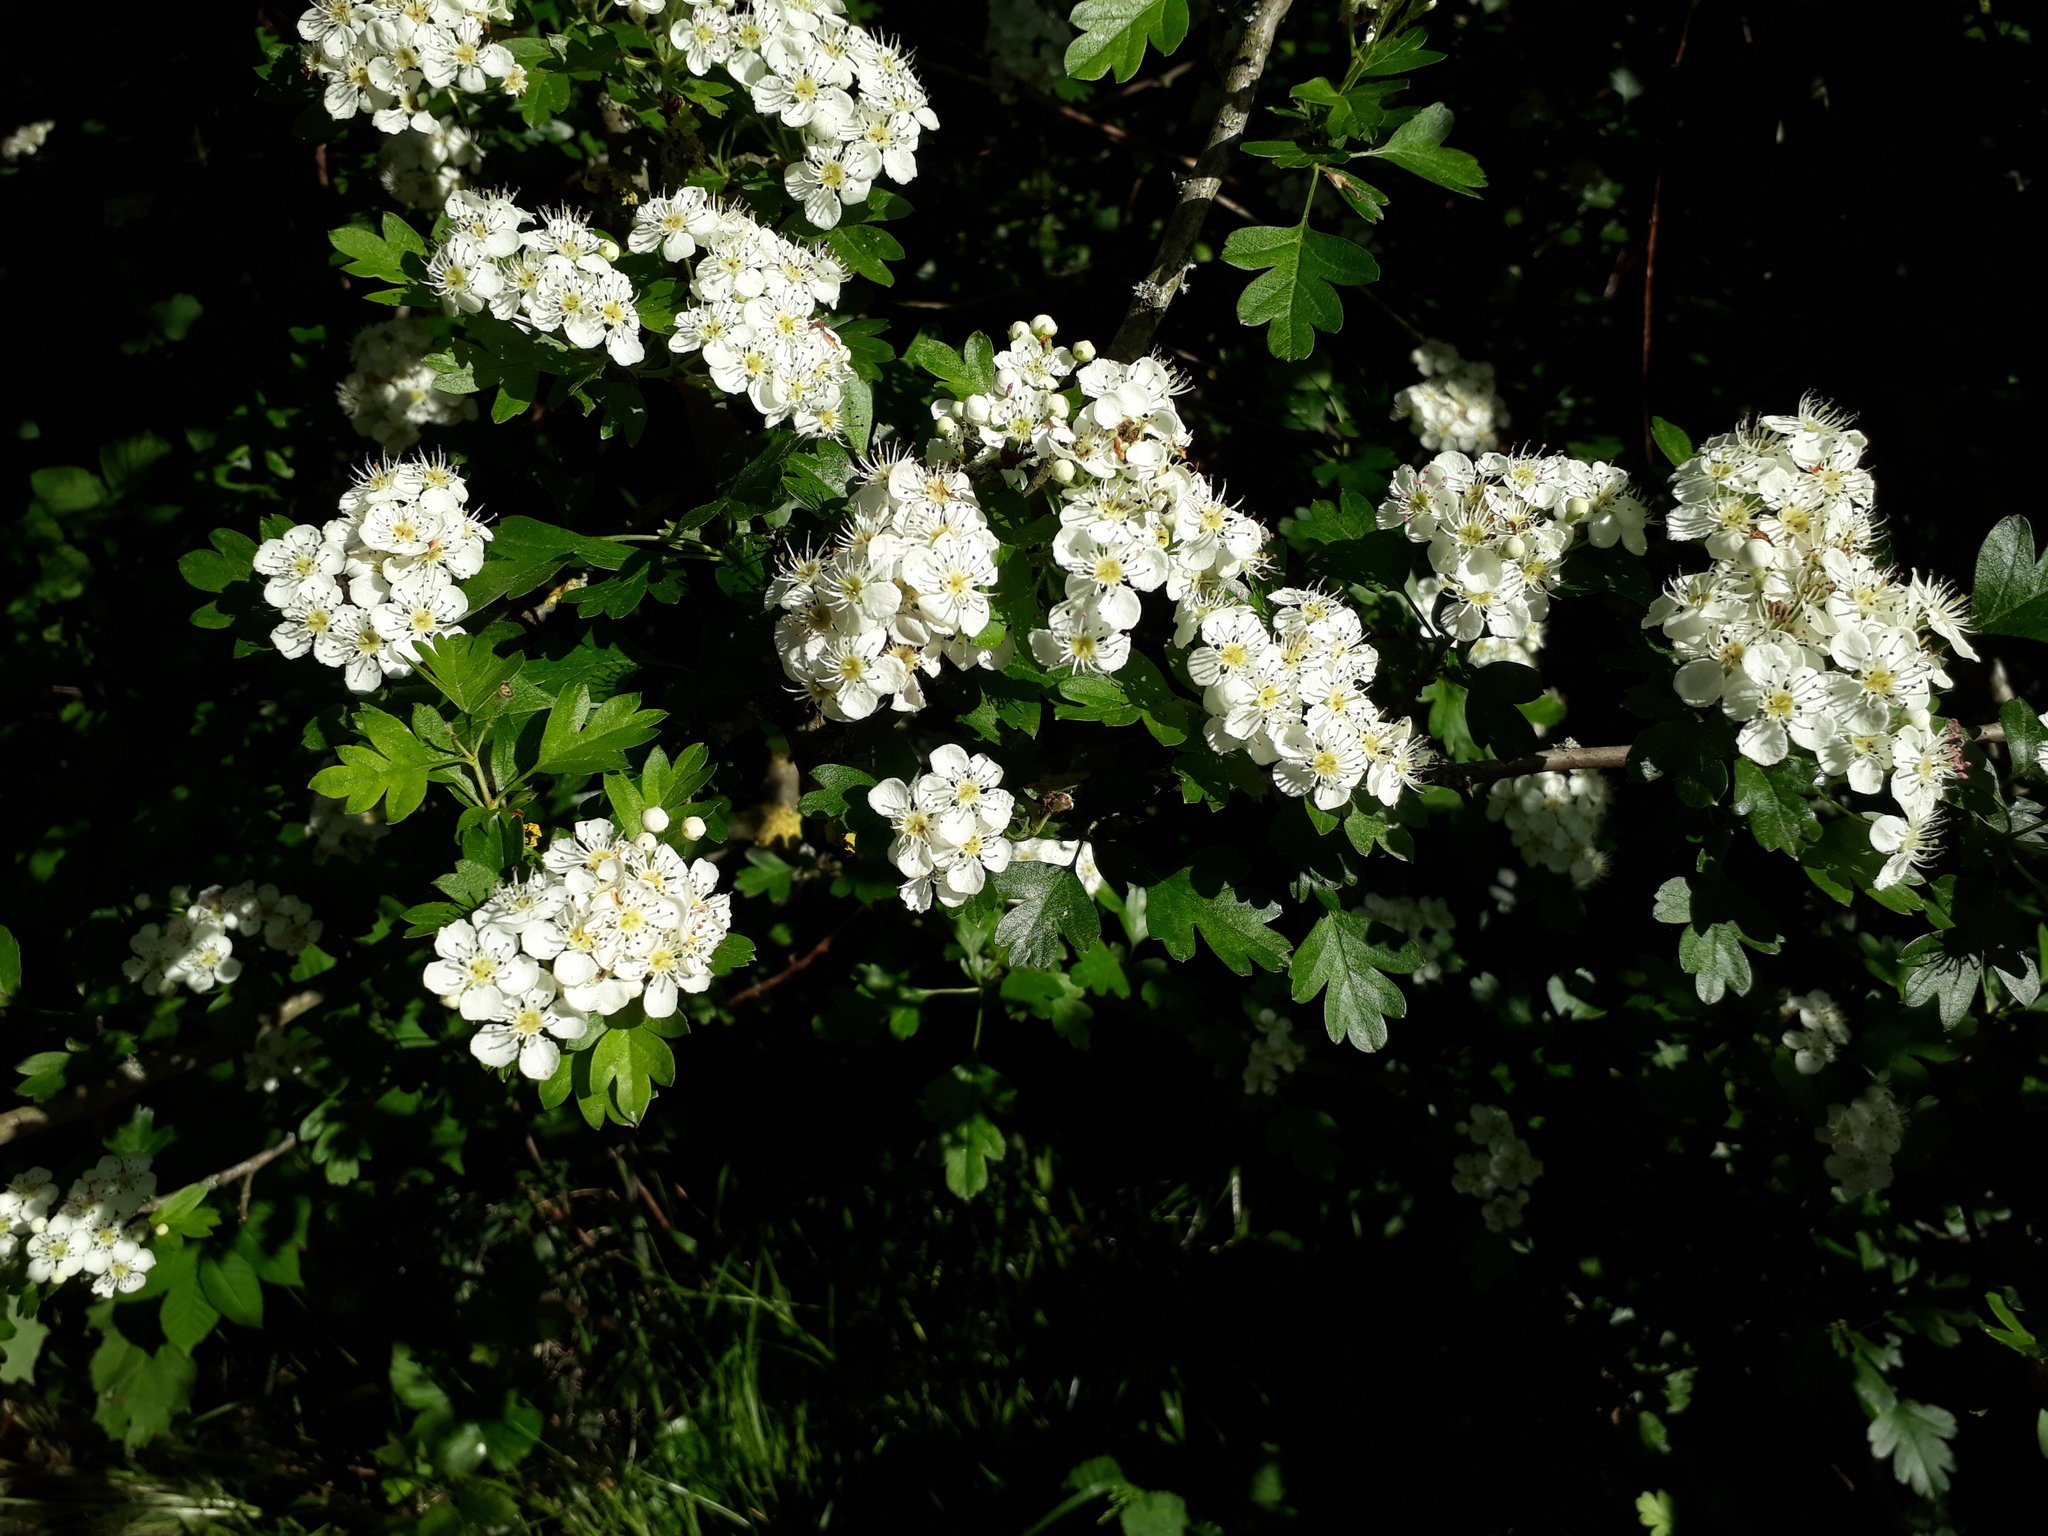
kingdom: Plantae
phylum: Tracheophyta
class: Magnoliopsida
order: Rosales
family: Rosaceae
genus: Crataegus
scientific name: Crataegus monogyna
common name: Hawthorn
